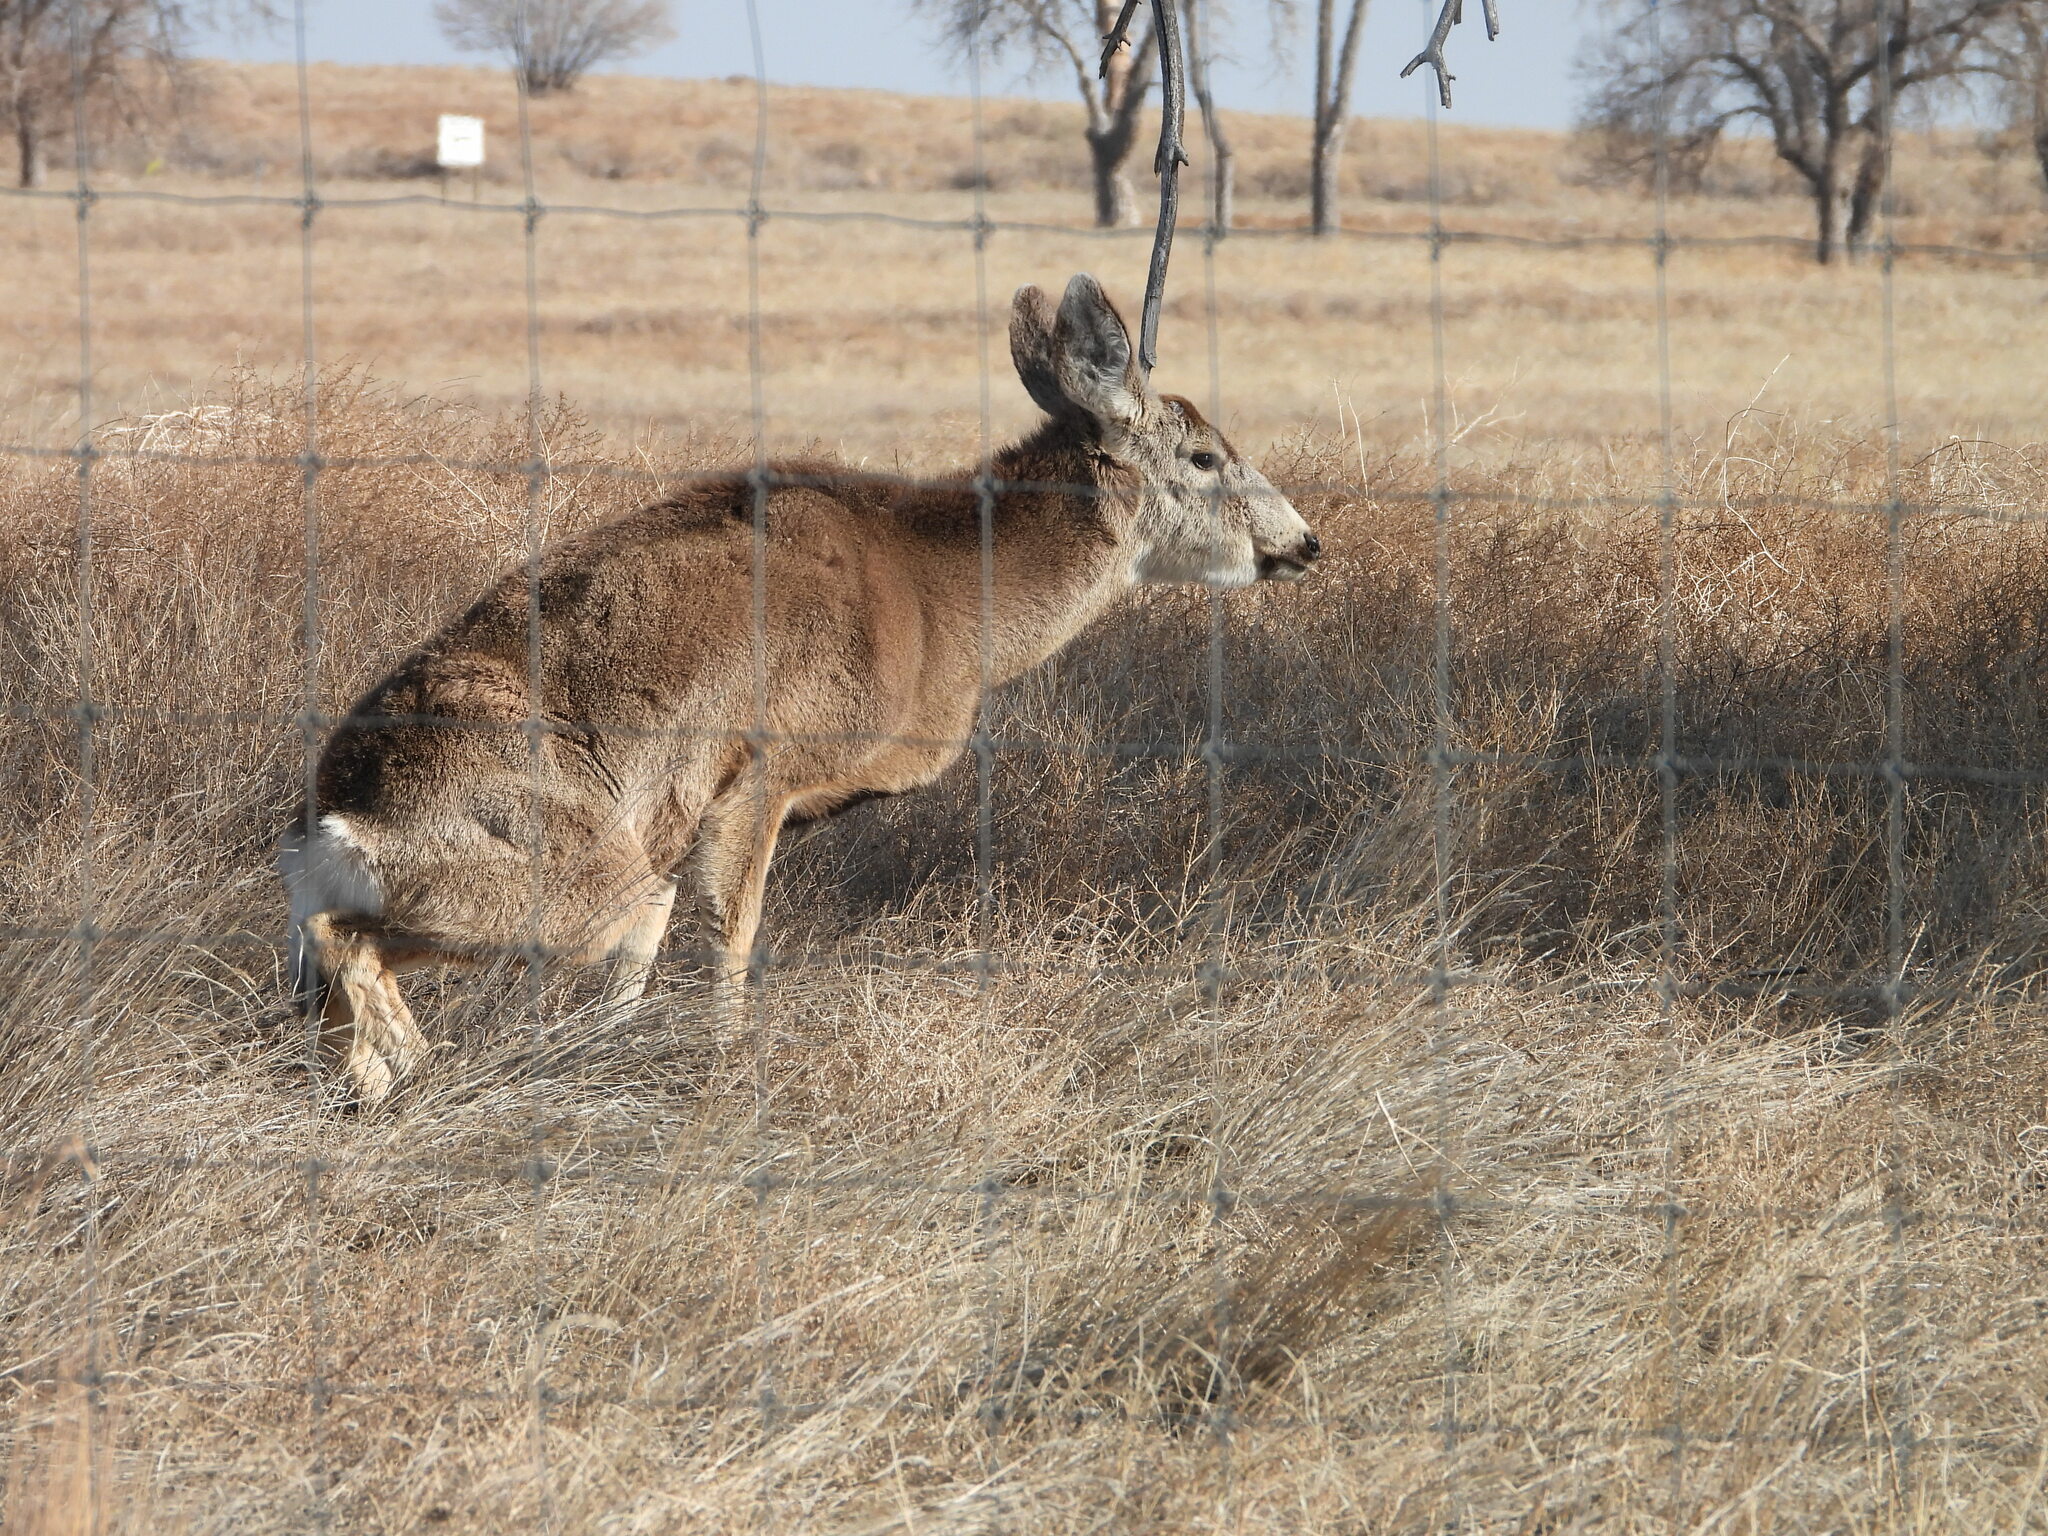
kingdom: Animalia
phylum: Chordata
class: Mammalia
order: Artiodactyla
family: Cervidae
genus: Odocoileus
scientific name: Odocoileus hemionus
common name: Mule deer
